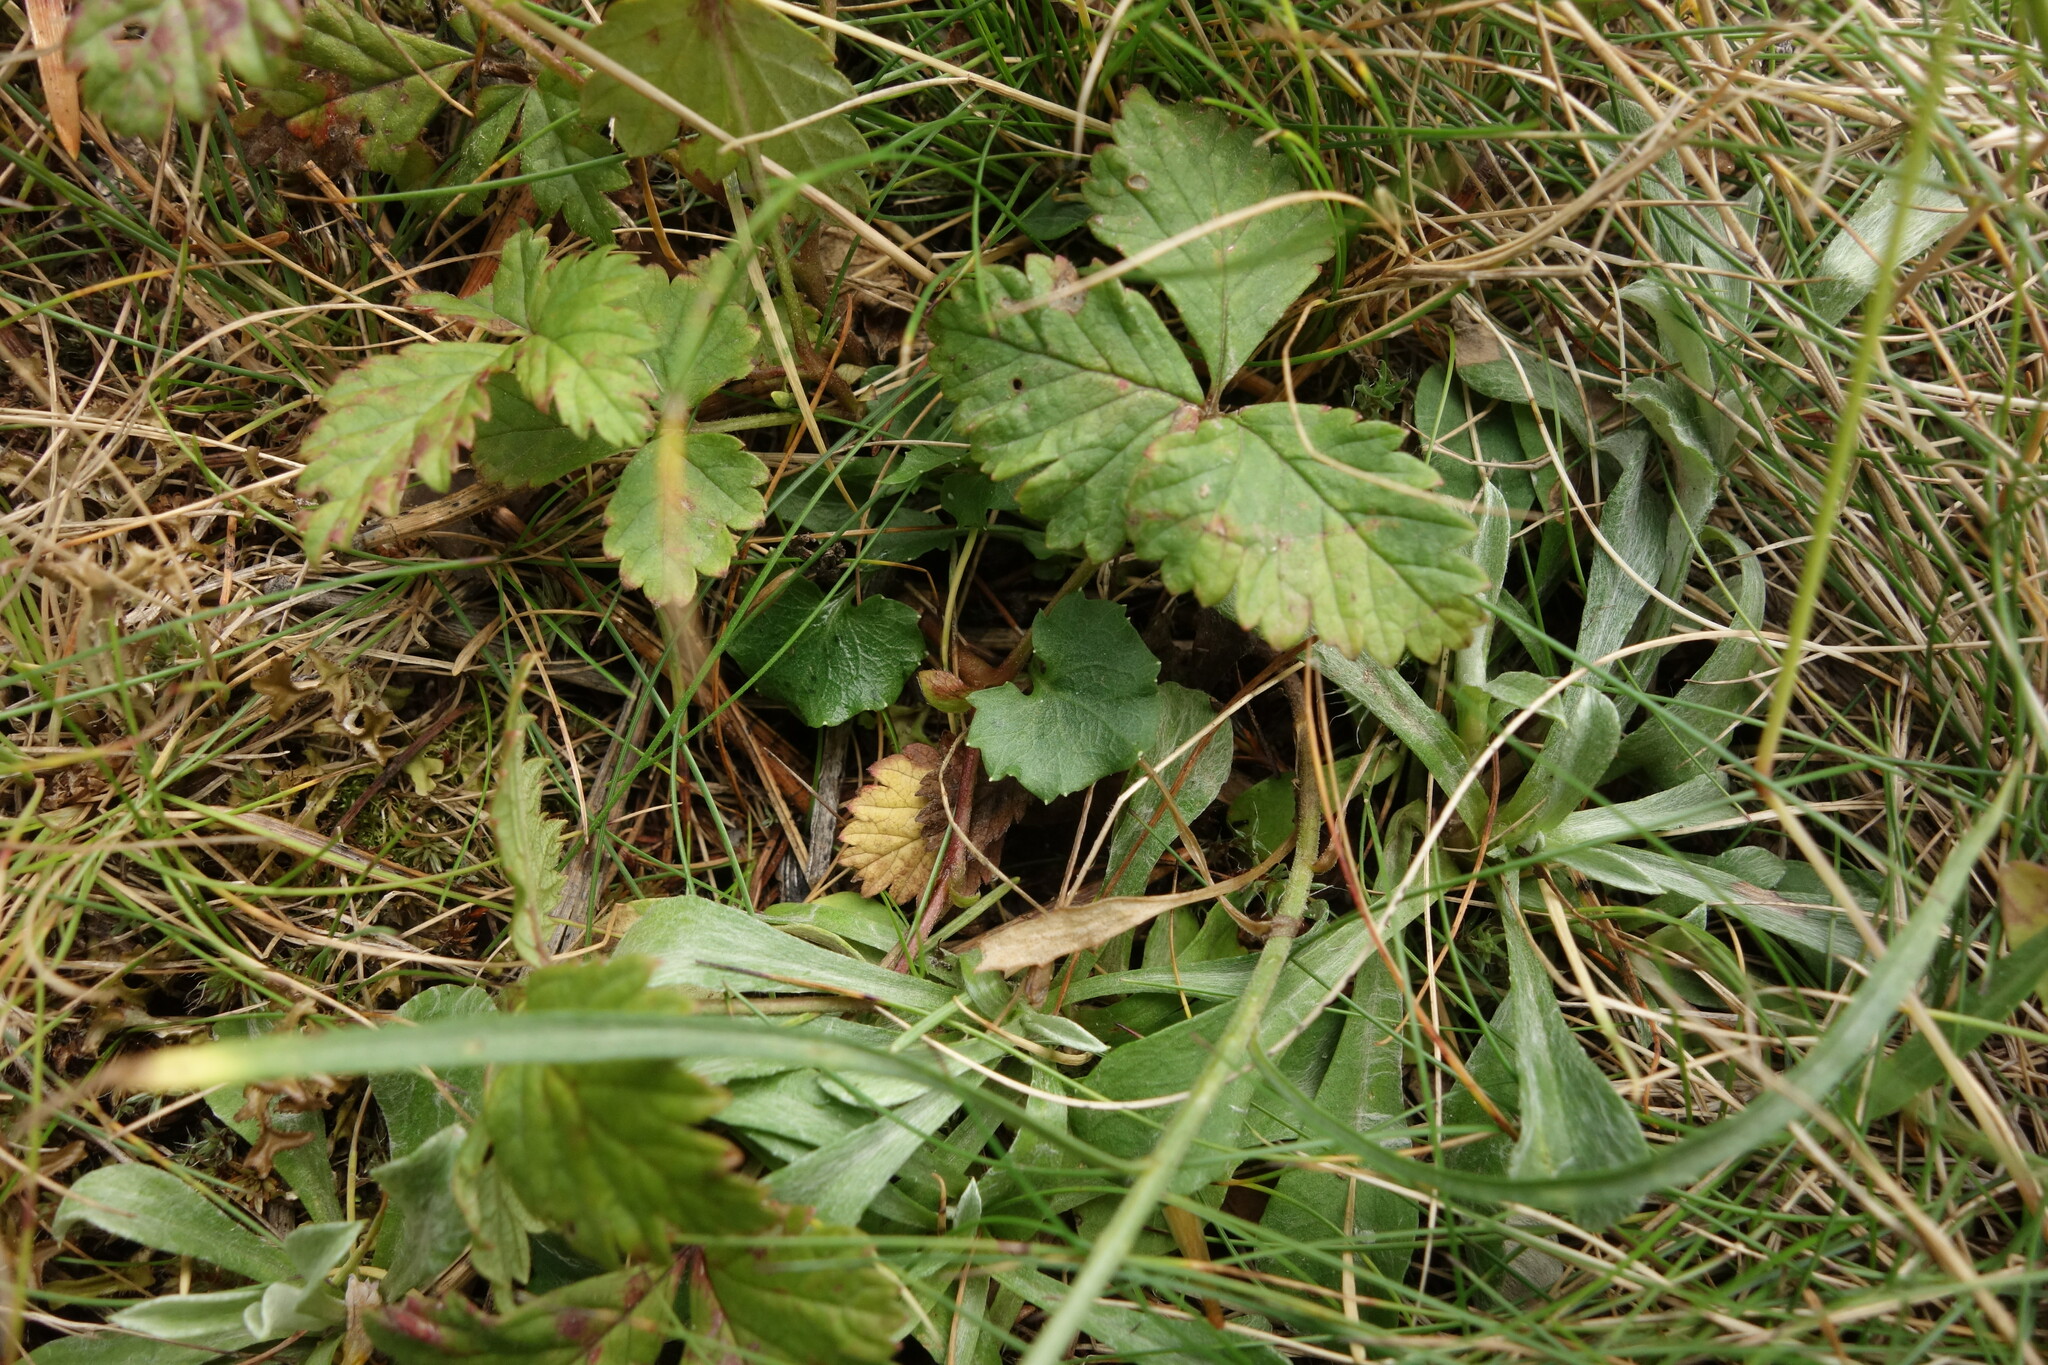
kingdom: Plantae
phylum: Tracheophyta
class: Magnoliopsida
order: Asterales
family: Campanulaceae
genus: Campanula
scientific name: Campanula rotundifolia
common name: Harebell
